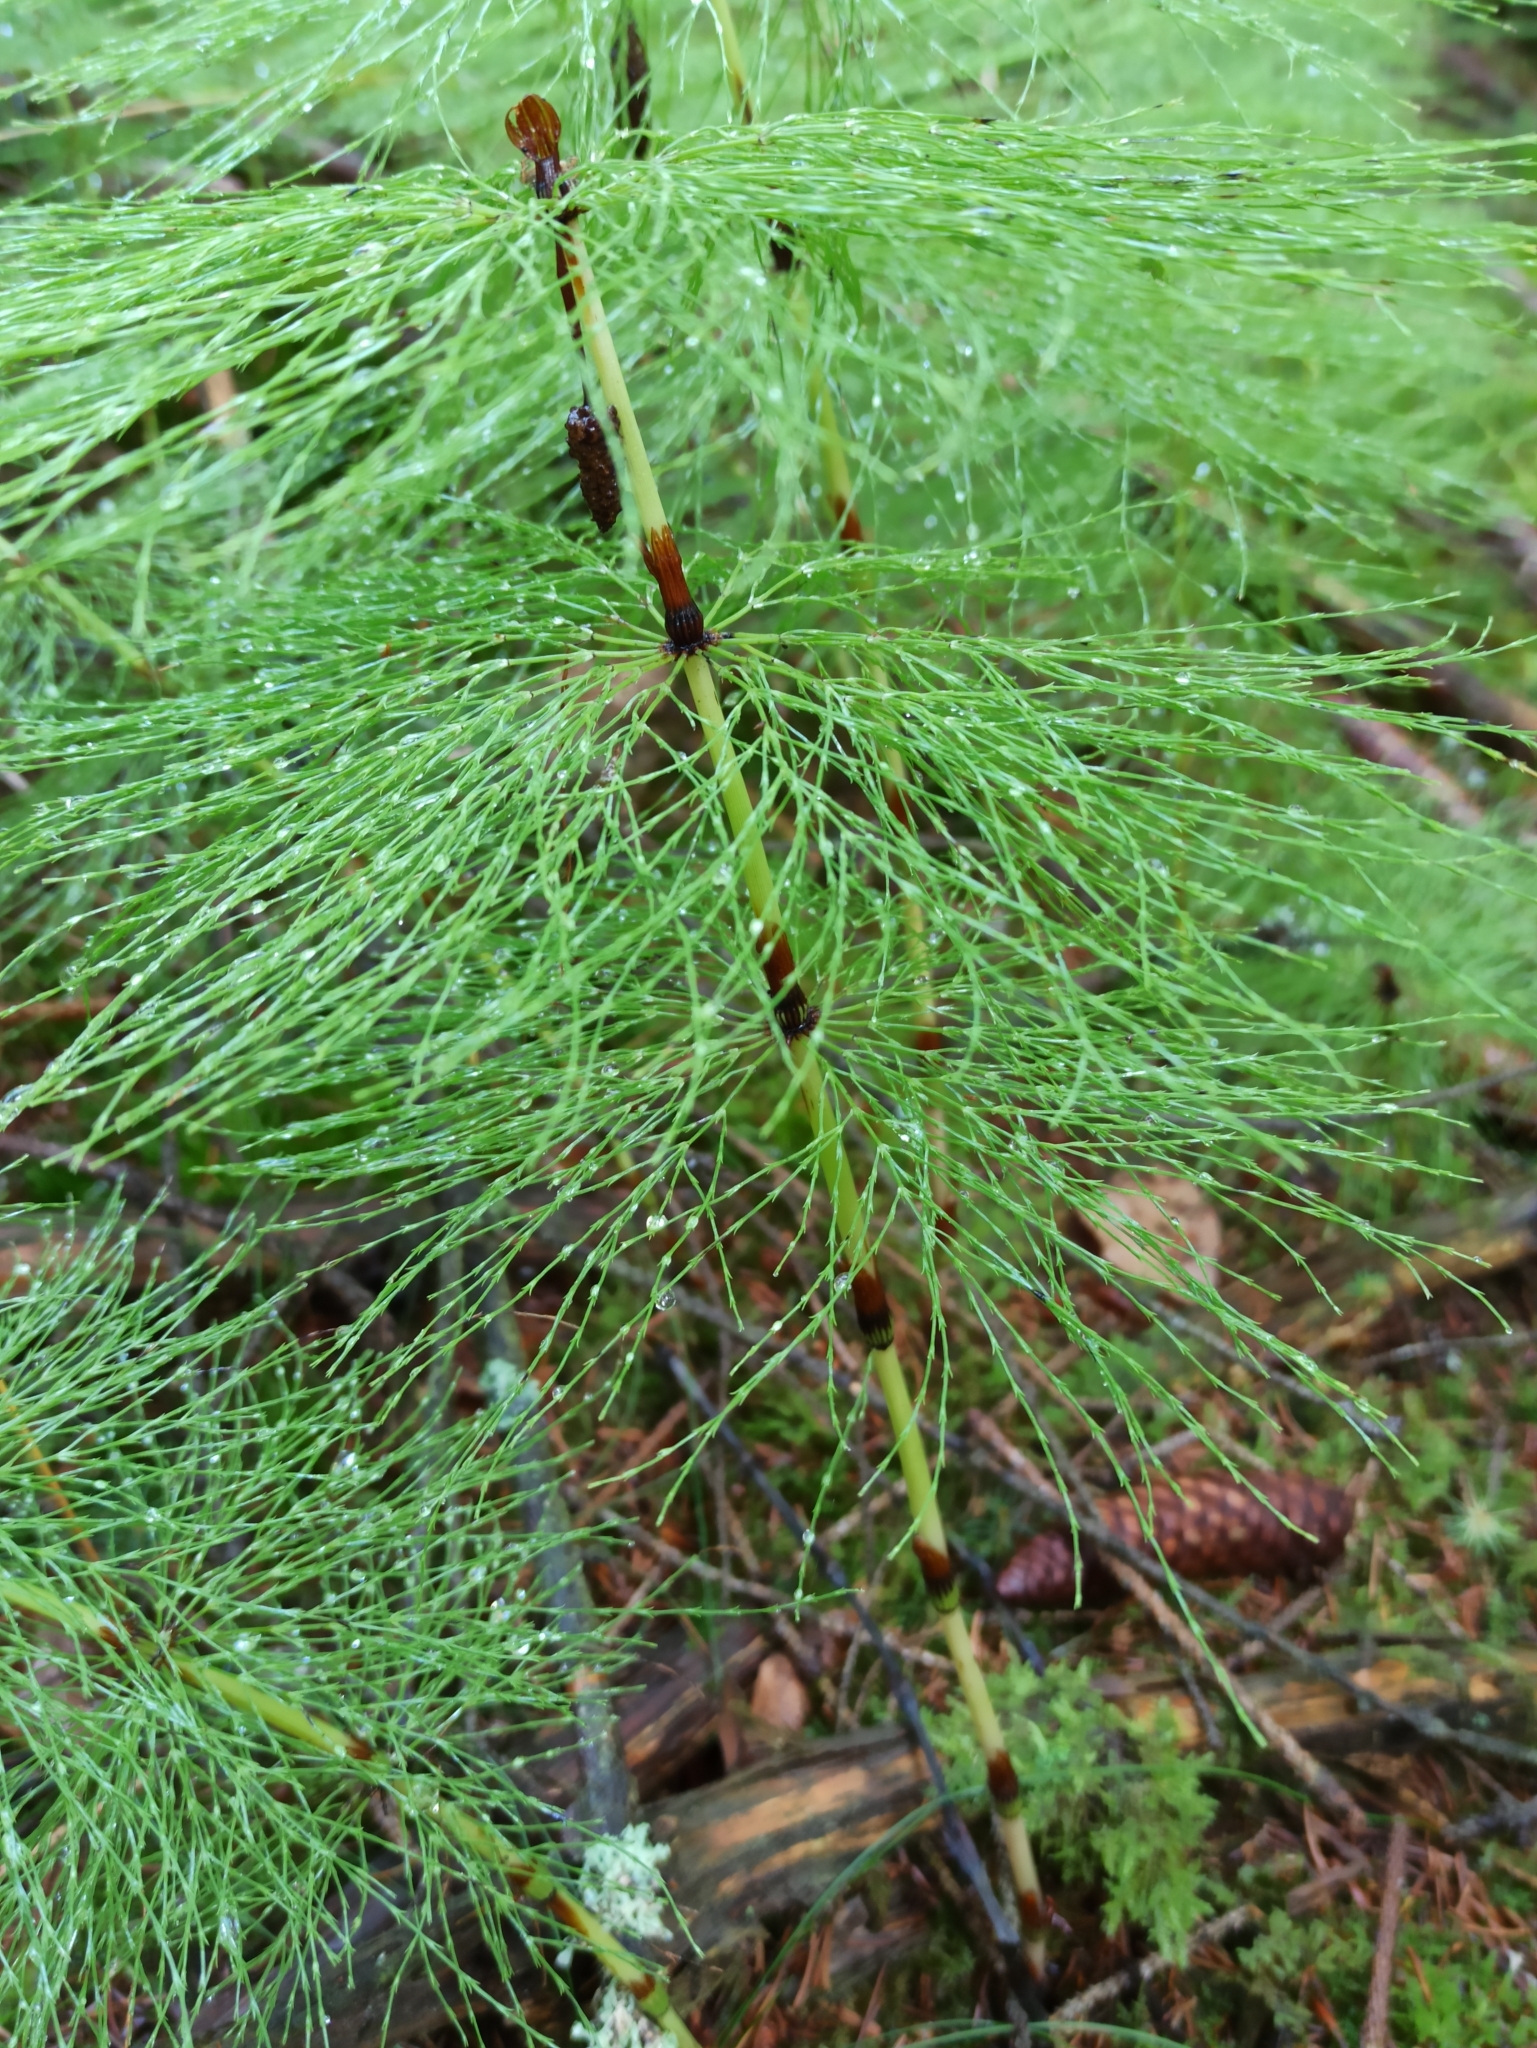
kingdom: Plantae
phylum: Tracheophyta
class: Polypodiopsida
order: Equisetales
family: Equisetaceae
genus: Equisetum
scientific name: Equisetum sylvaticum
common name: Wood horsetail
